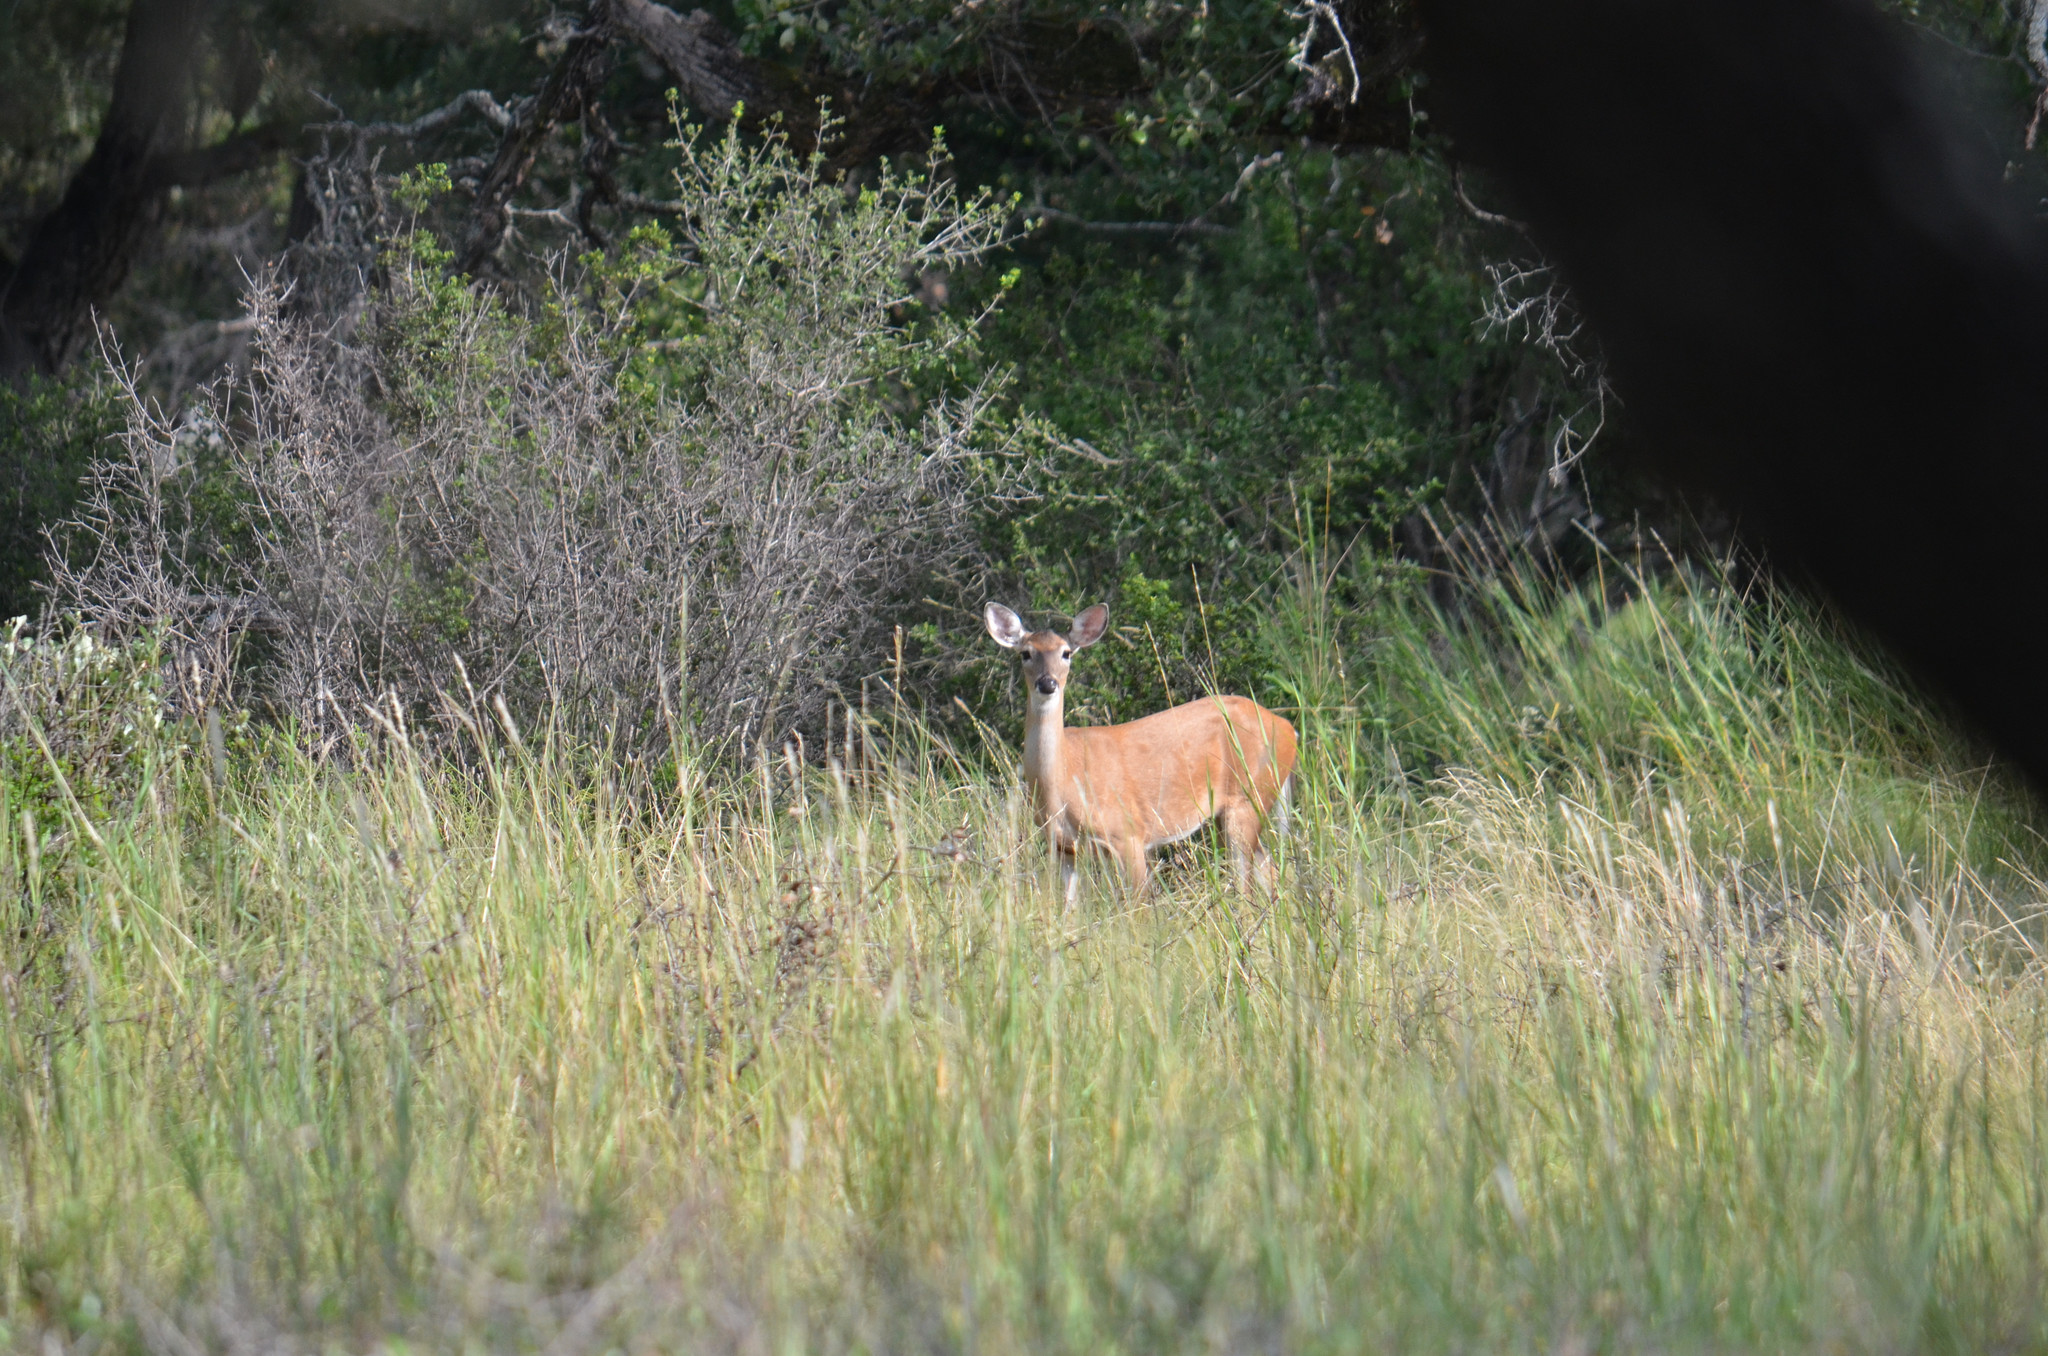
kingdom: Animalia
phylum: Chordata
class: Mammalia
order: Artiodactyla
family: Cervidae
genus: Odocoileus
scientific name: Odocoileus virginianus
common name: White-tailed deer
